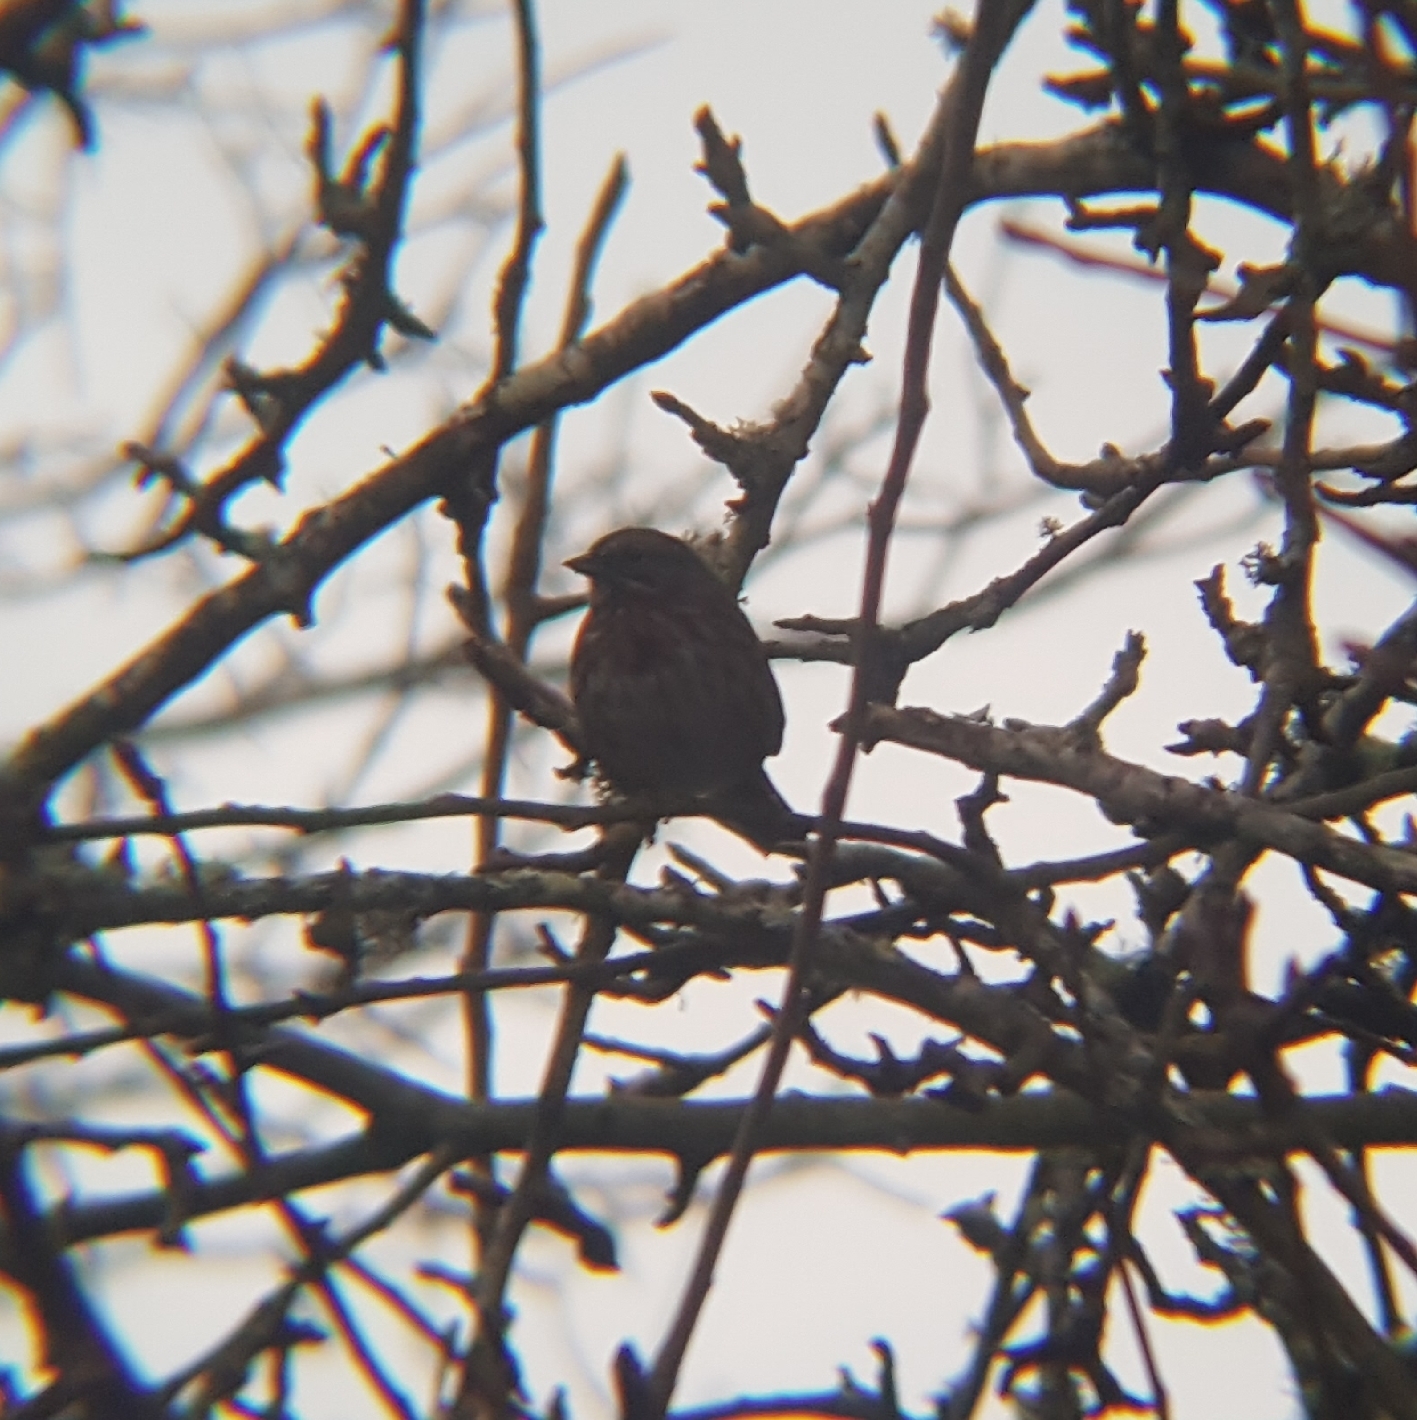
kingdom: Animalia
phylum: Chordata
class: Aves
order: Passeriformes
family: Passerellidae
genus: Melospiza
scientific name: Melospiza melodia
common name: Song sparrow
